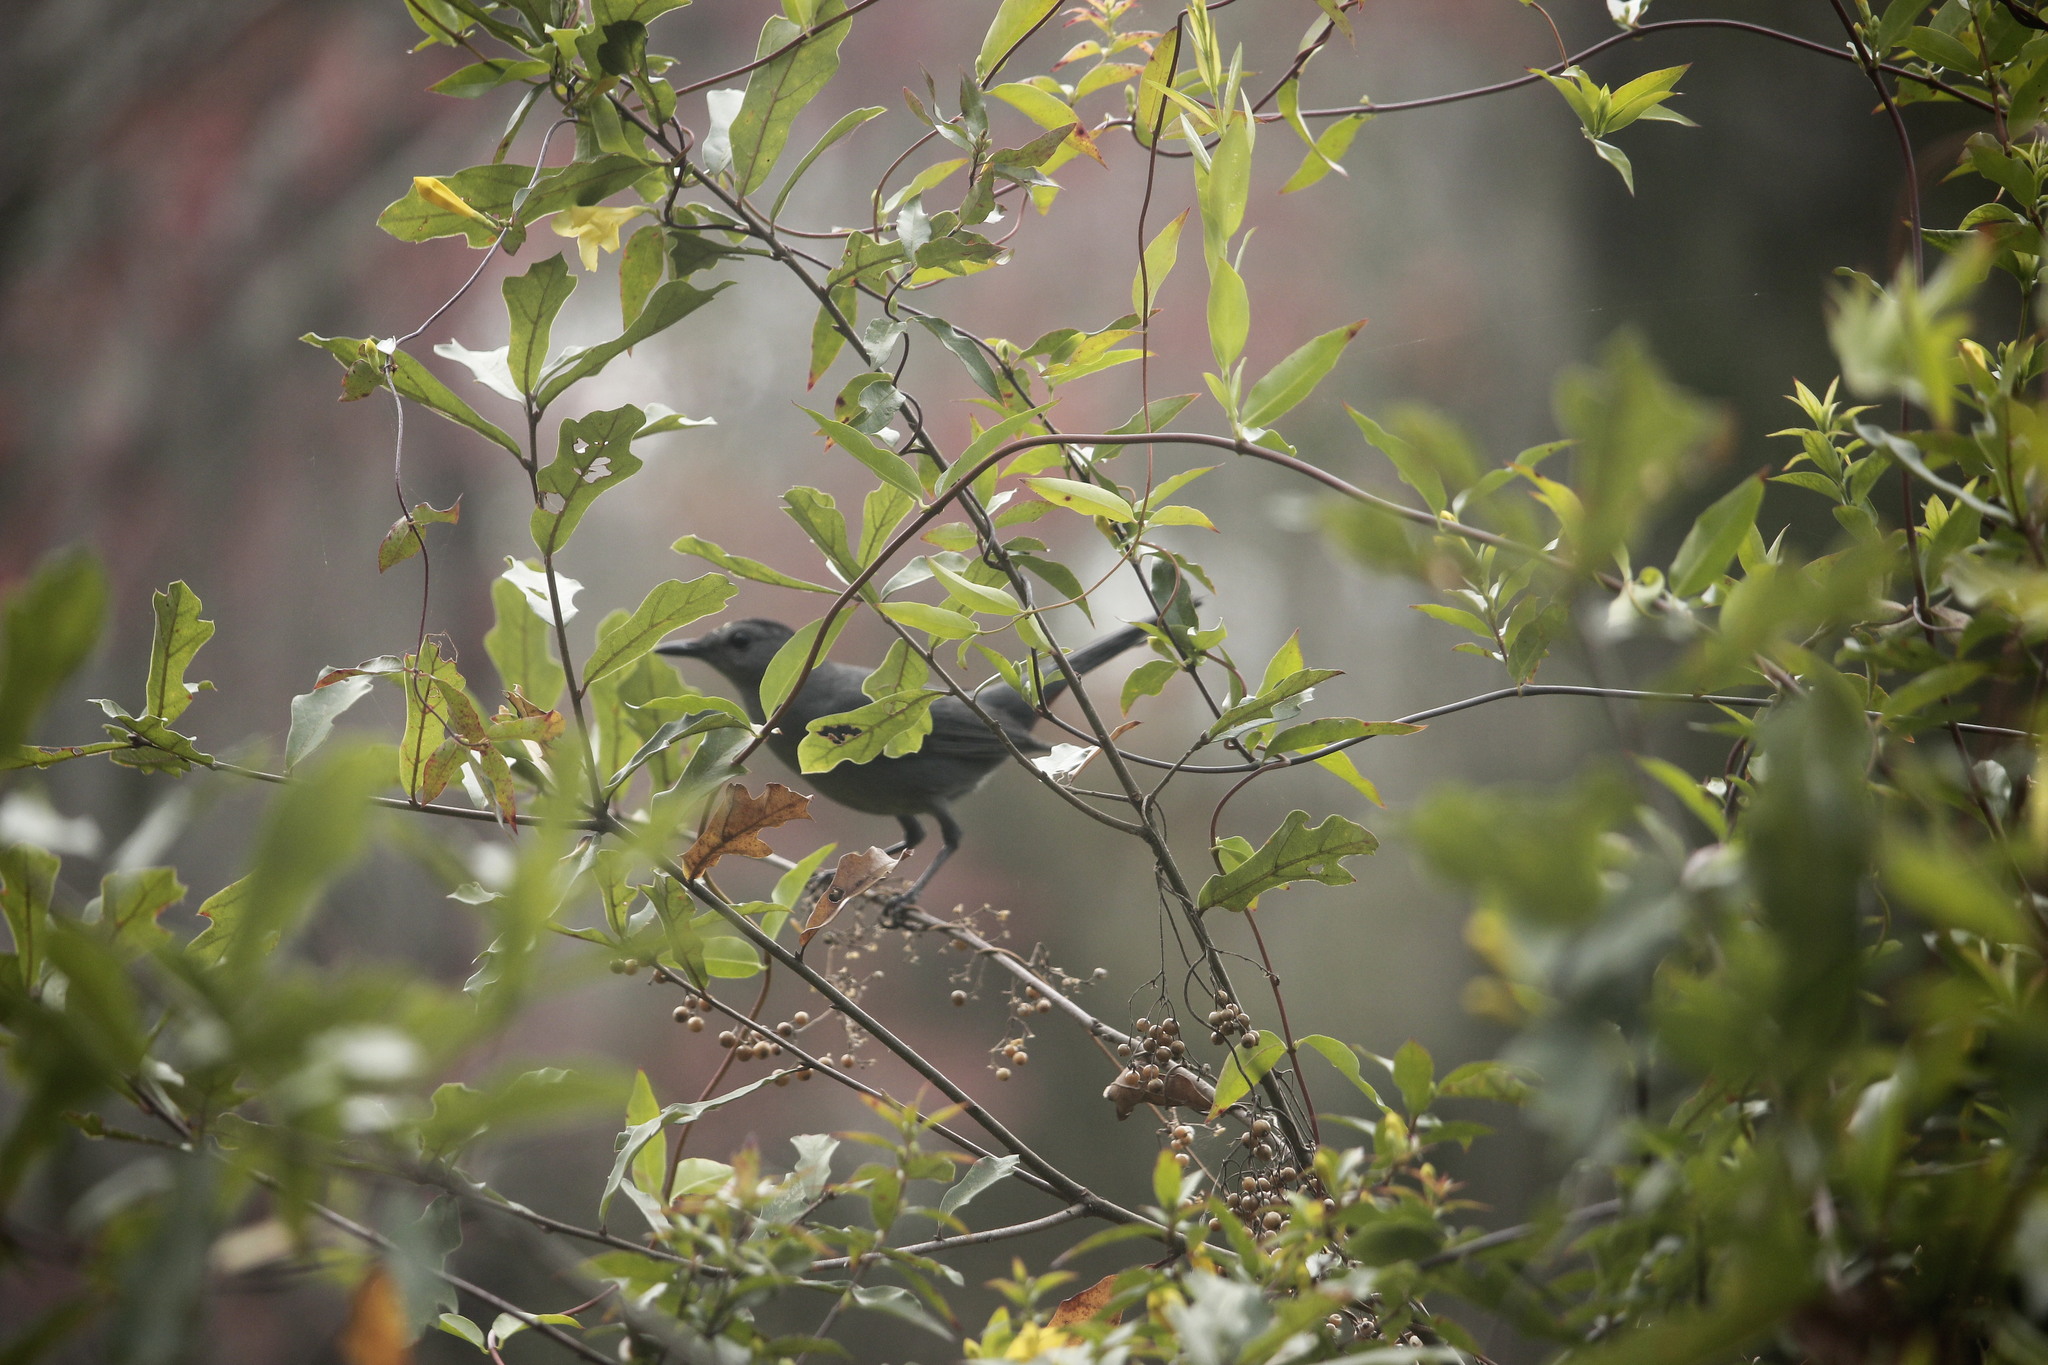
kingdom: Animalia
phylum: Chordata
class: Aves
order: Passeriformes
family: Mimidae
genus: Dumetella
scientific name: Dumetella carolinensis
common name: Gray catbird
